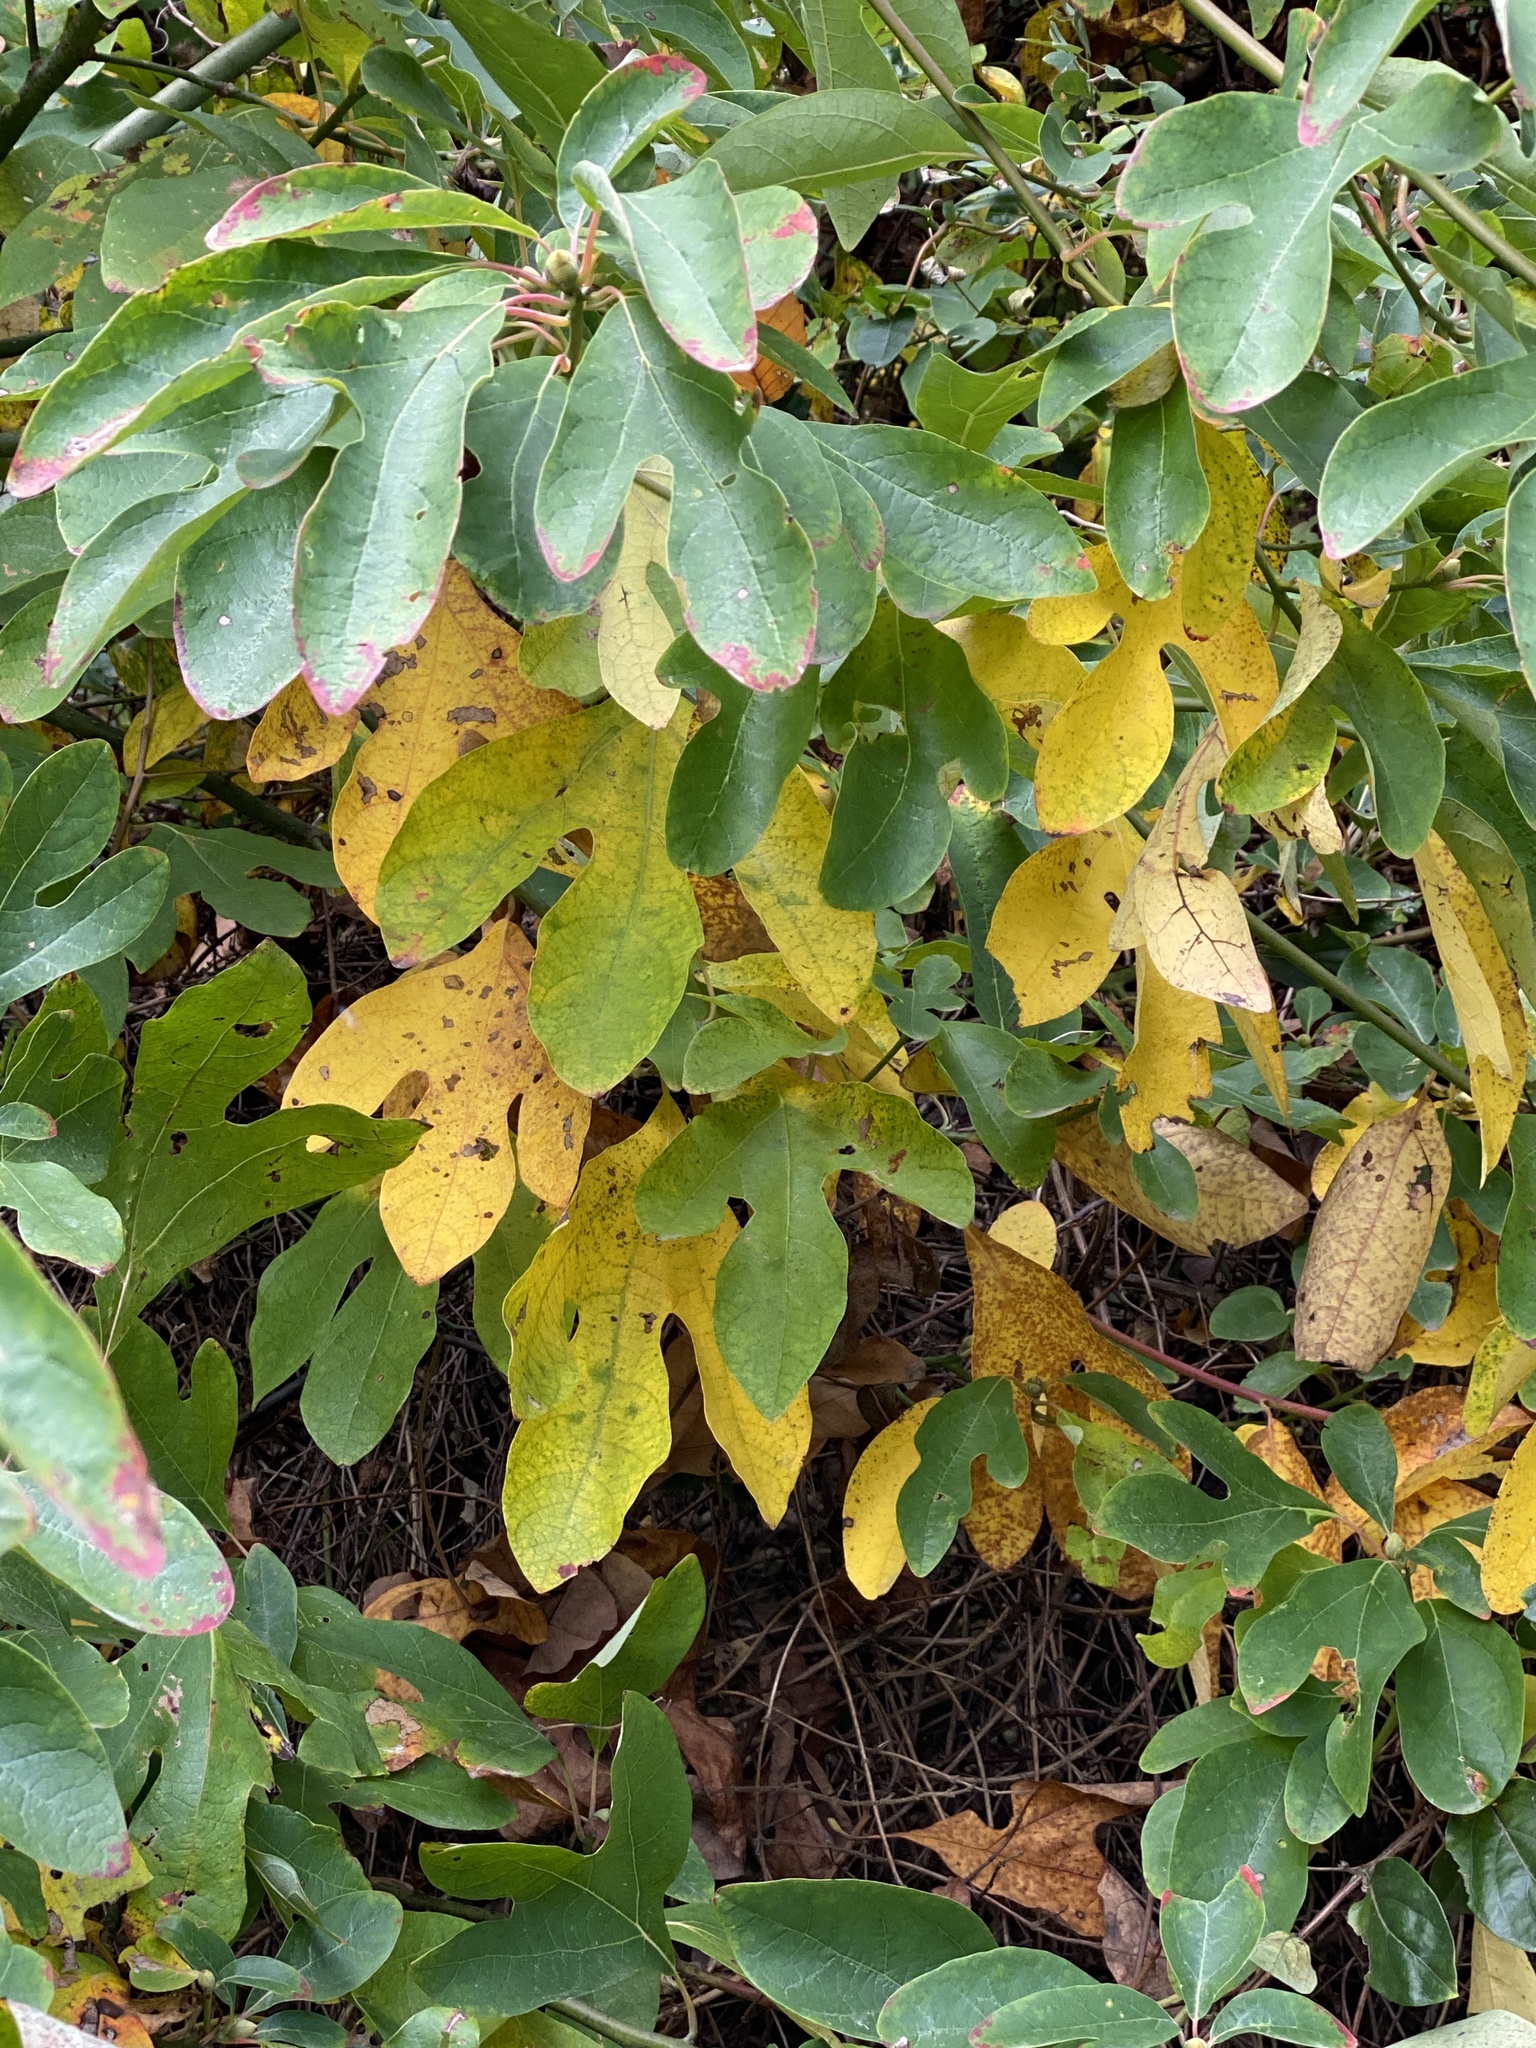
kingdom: Plantae
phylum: Tracheophyta
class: Magnoliopsida
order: Laurales
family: Lauraceae
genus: Sassafras
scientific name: Sassafras albidum
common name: Sassafras
